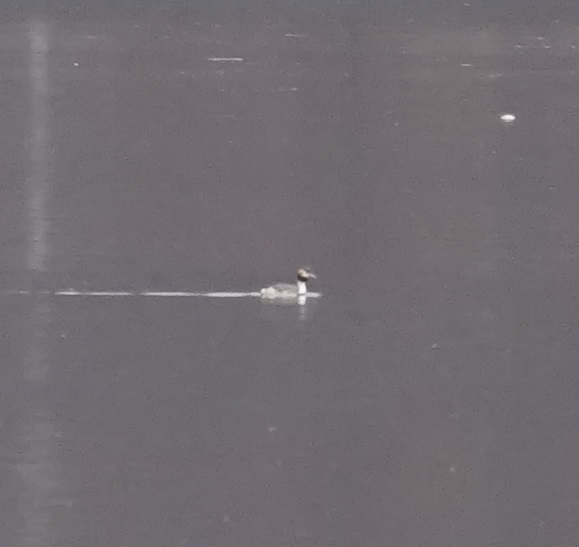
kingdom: Animalia
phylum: Chordata
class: Aves
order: Podicipediformes
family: Podicipedidae
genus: Podiceps
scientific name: Podiceps cristatus
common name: Great crested grebe
